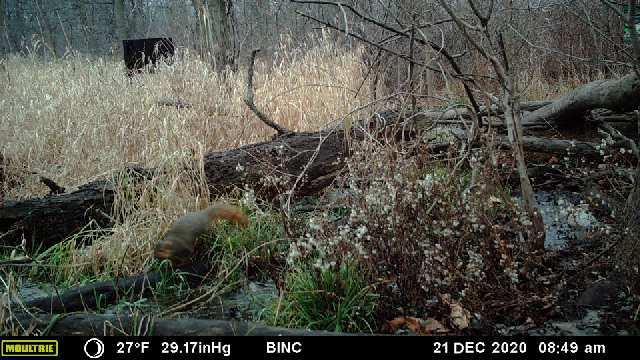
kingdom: Animalia
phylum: Chordata
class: Mammalia
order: Rodentia
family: Sciuridae
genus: Sciurus
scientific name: Sciurus niger
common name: Fox squirrel
